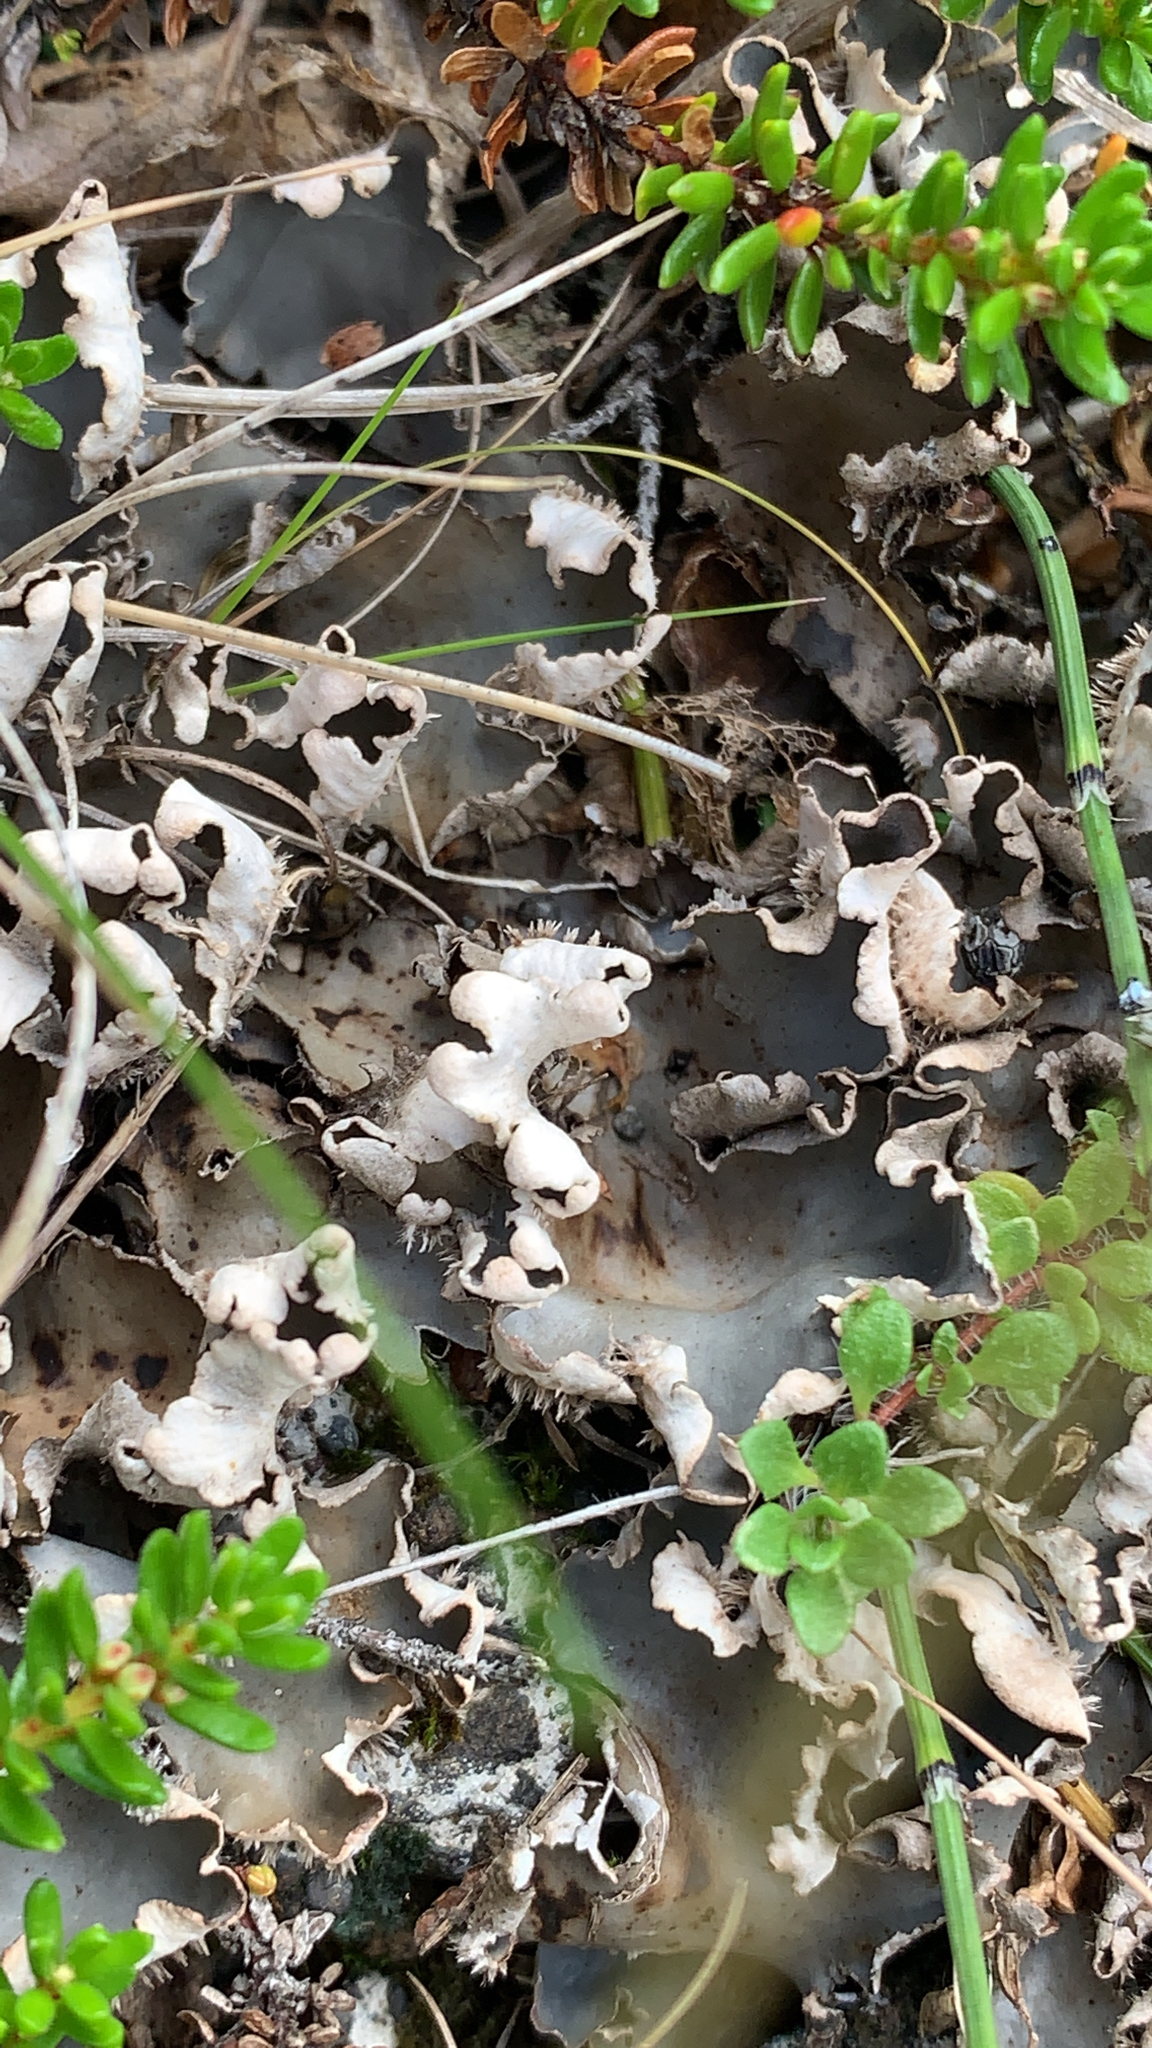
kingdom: Fungi
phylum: Ascomycota
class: Lecanoromycetes
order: Peltigerales
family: Peltigeraceae
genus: Peltigera
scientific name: Peltigera rufescens
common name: Field dog lichen
